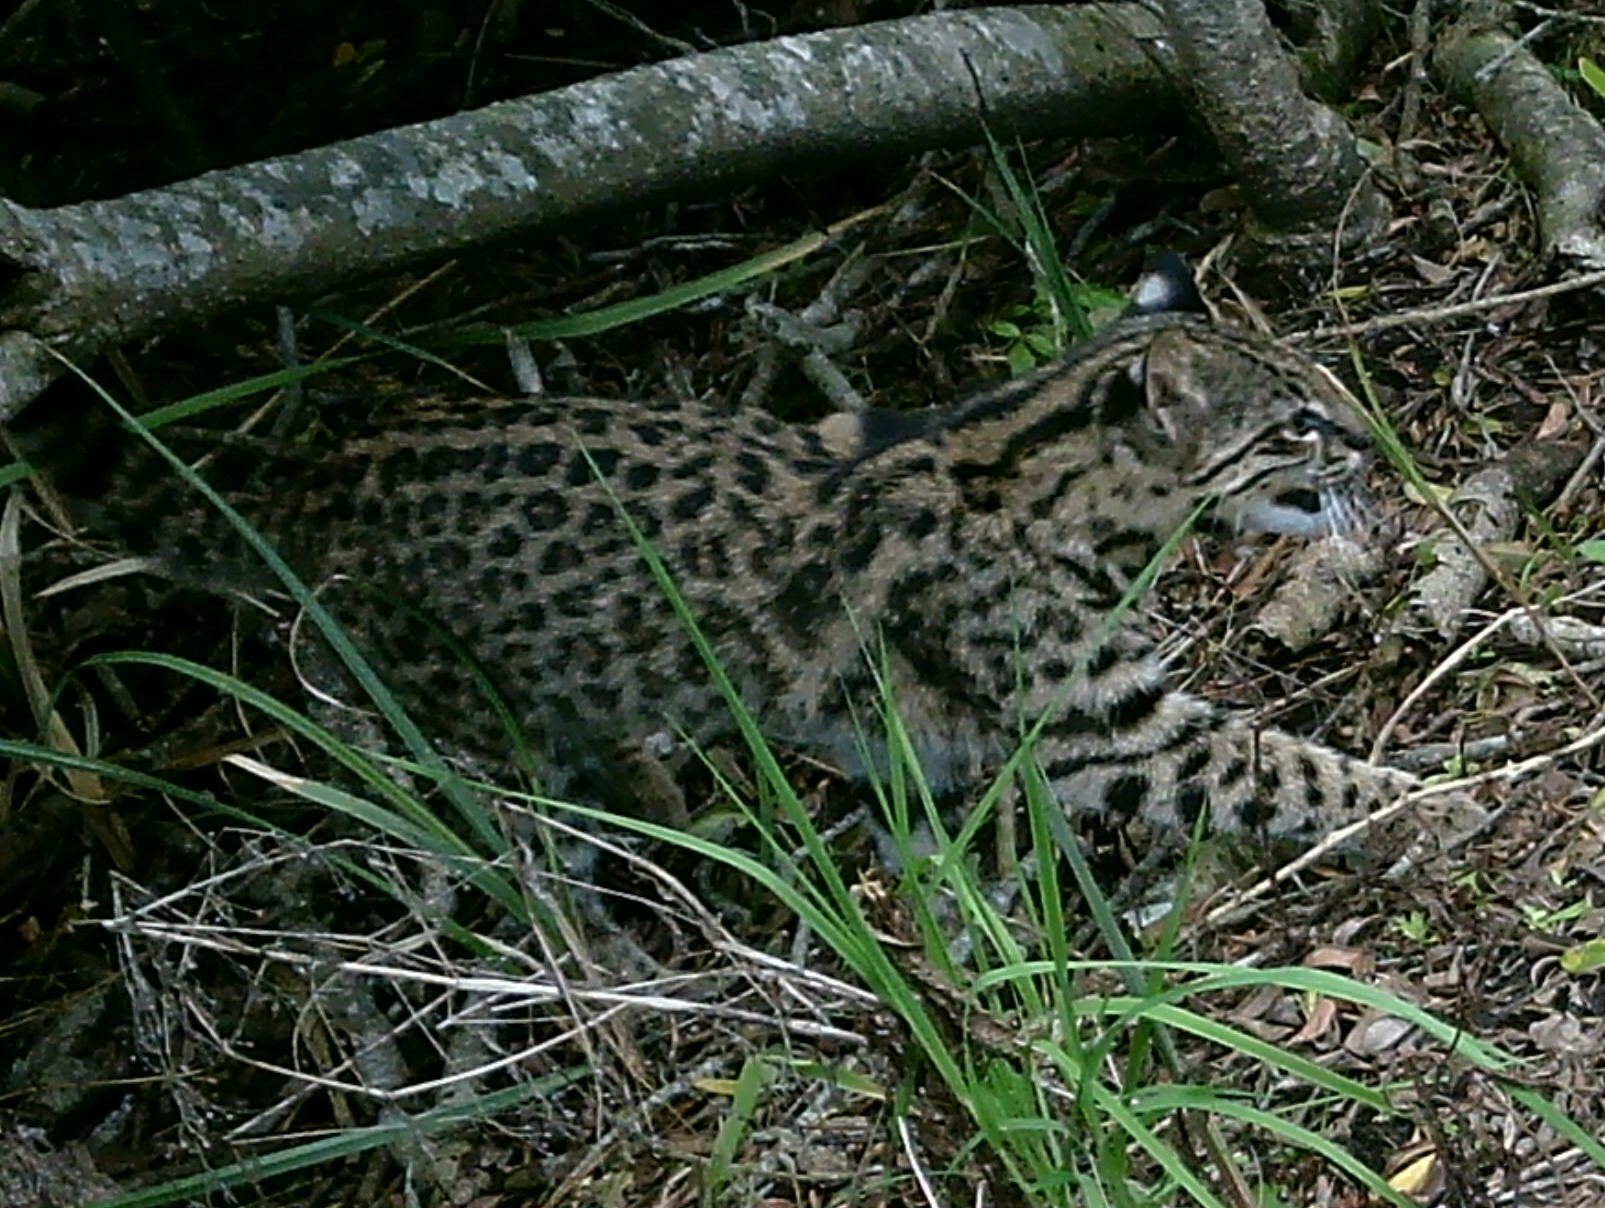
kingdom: Animalia
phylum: Chordata
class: Mammalia
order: Carnivora
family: Felidae
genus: Leopardus
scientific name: Leopardus geoffroyi
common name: Geoffroy's cat
